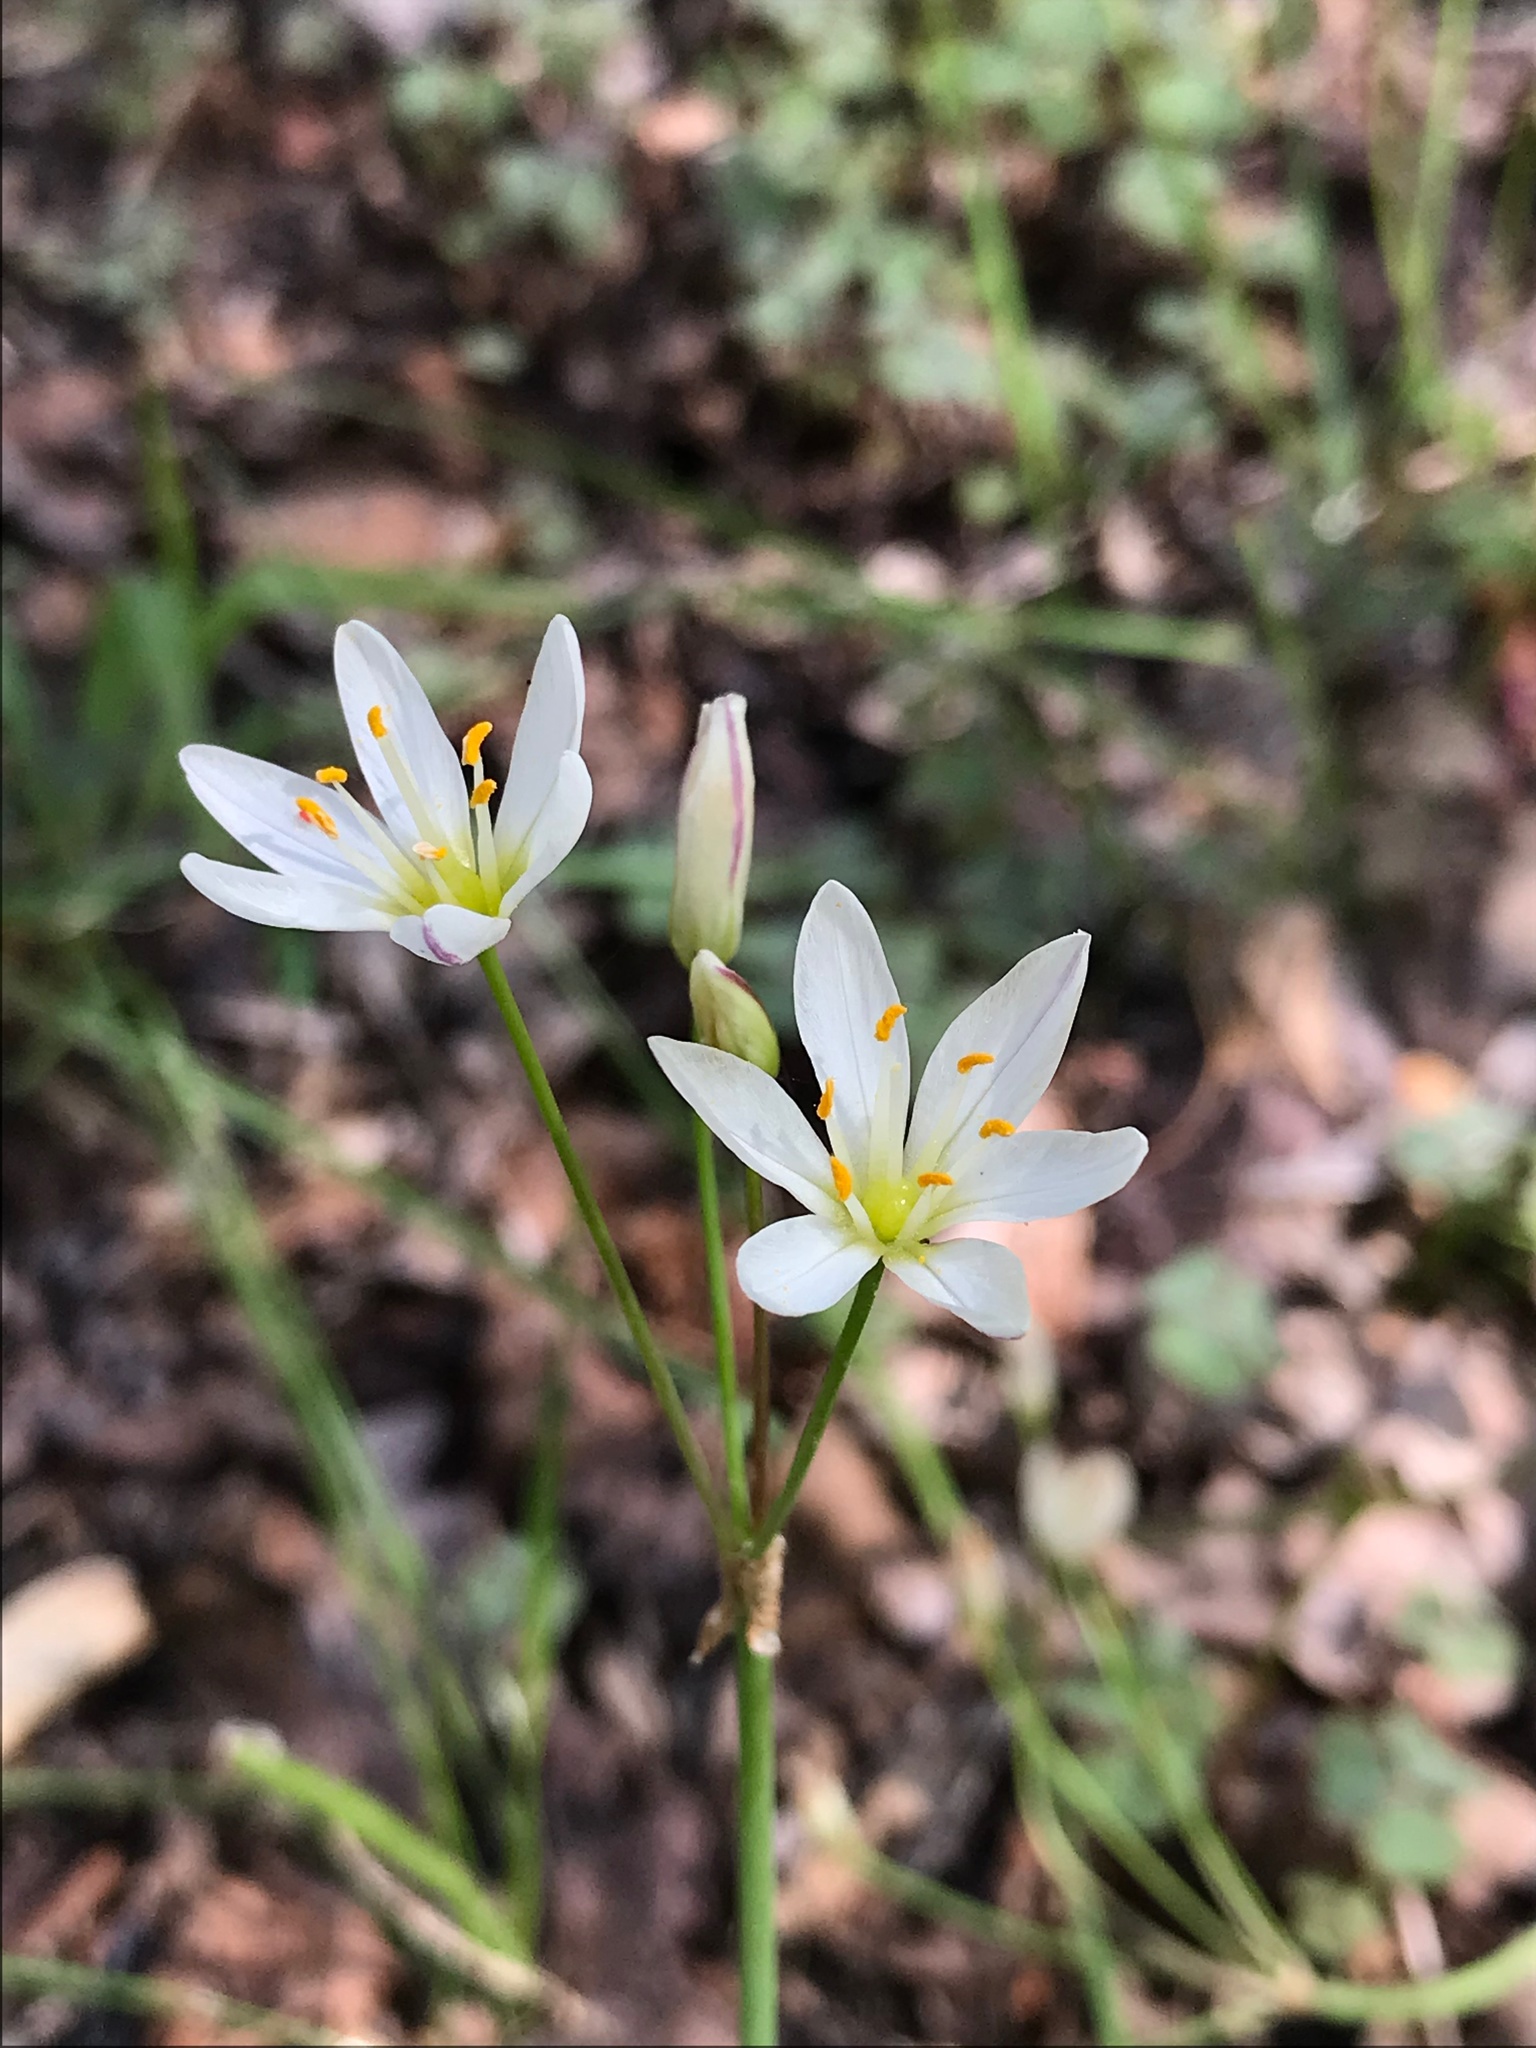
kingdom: Plantae
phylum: Tracheophyta
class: Liliopsida
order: Asparagales
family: Amaryllidaceae
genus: Nothoscordum
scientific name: Nothoscordum bivalve
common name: Crow-poison
